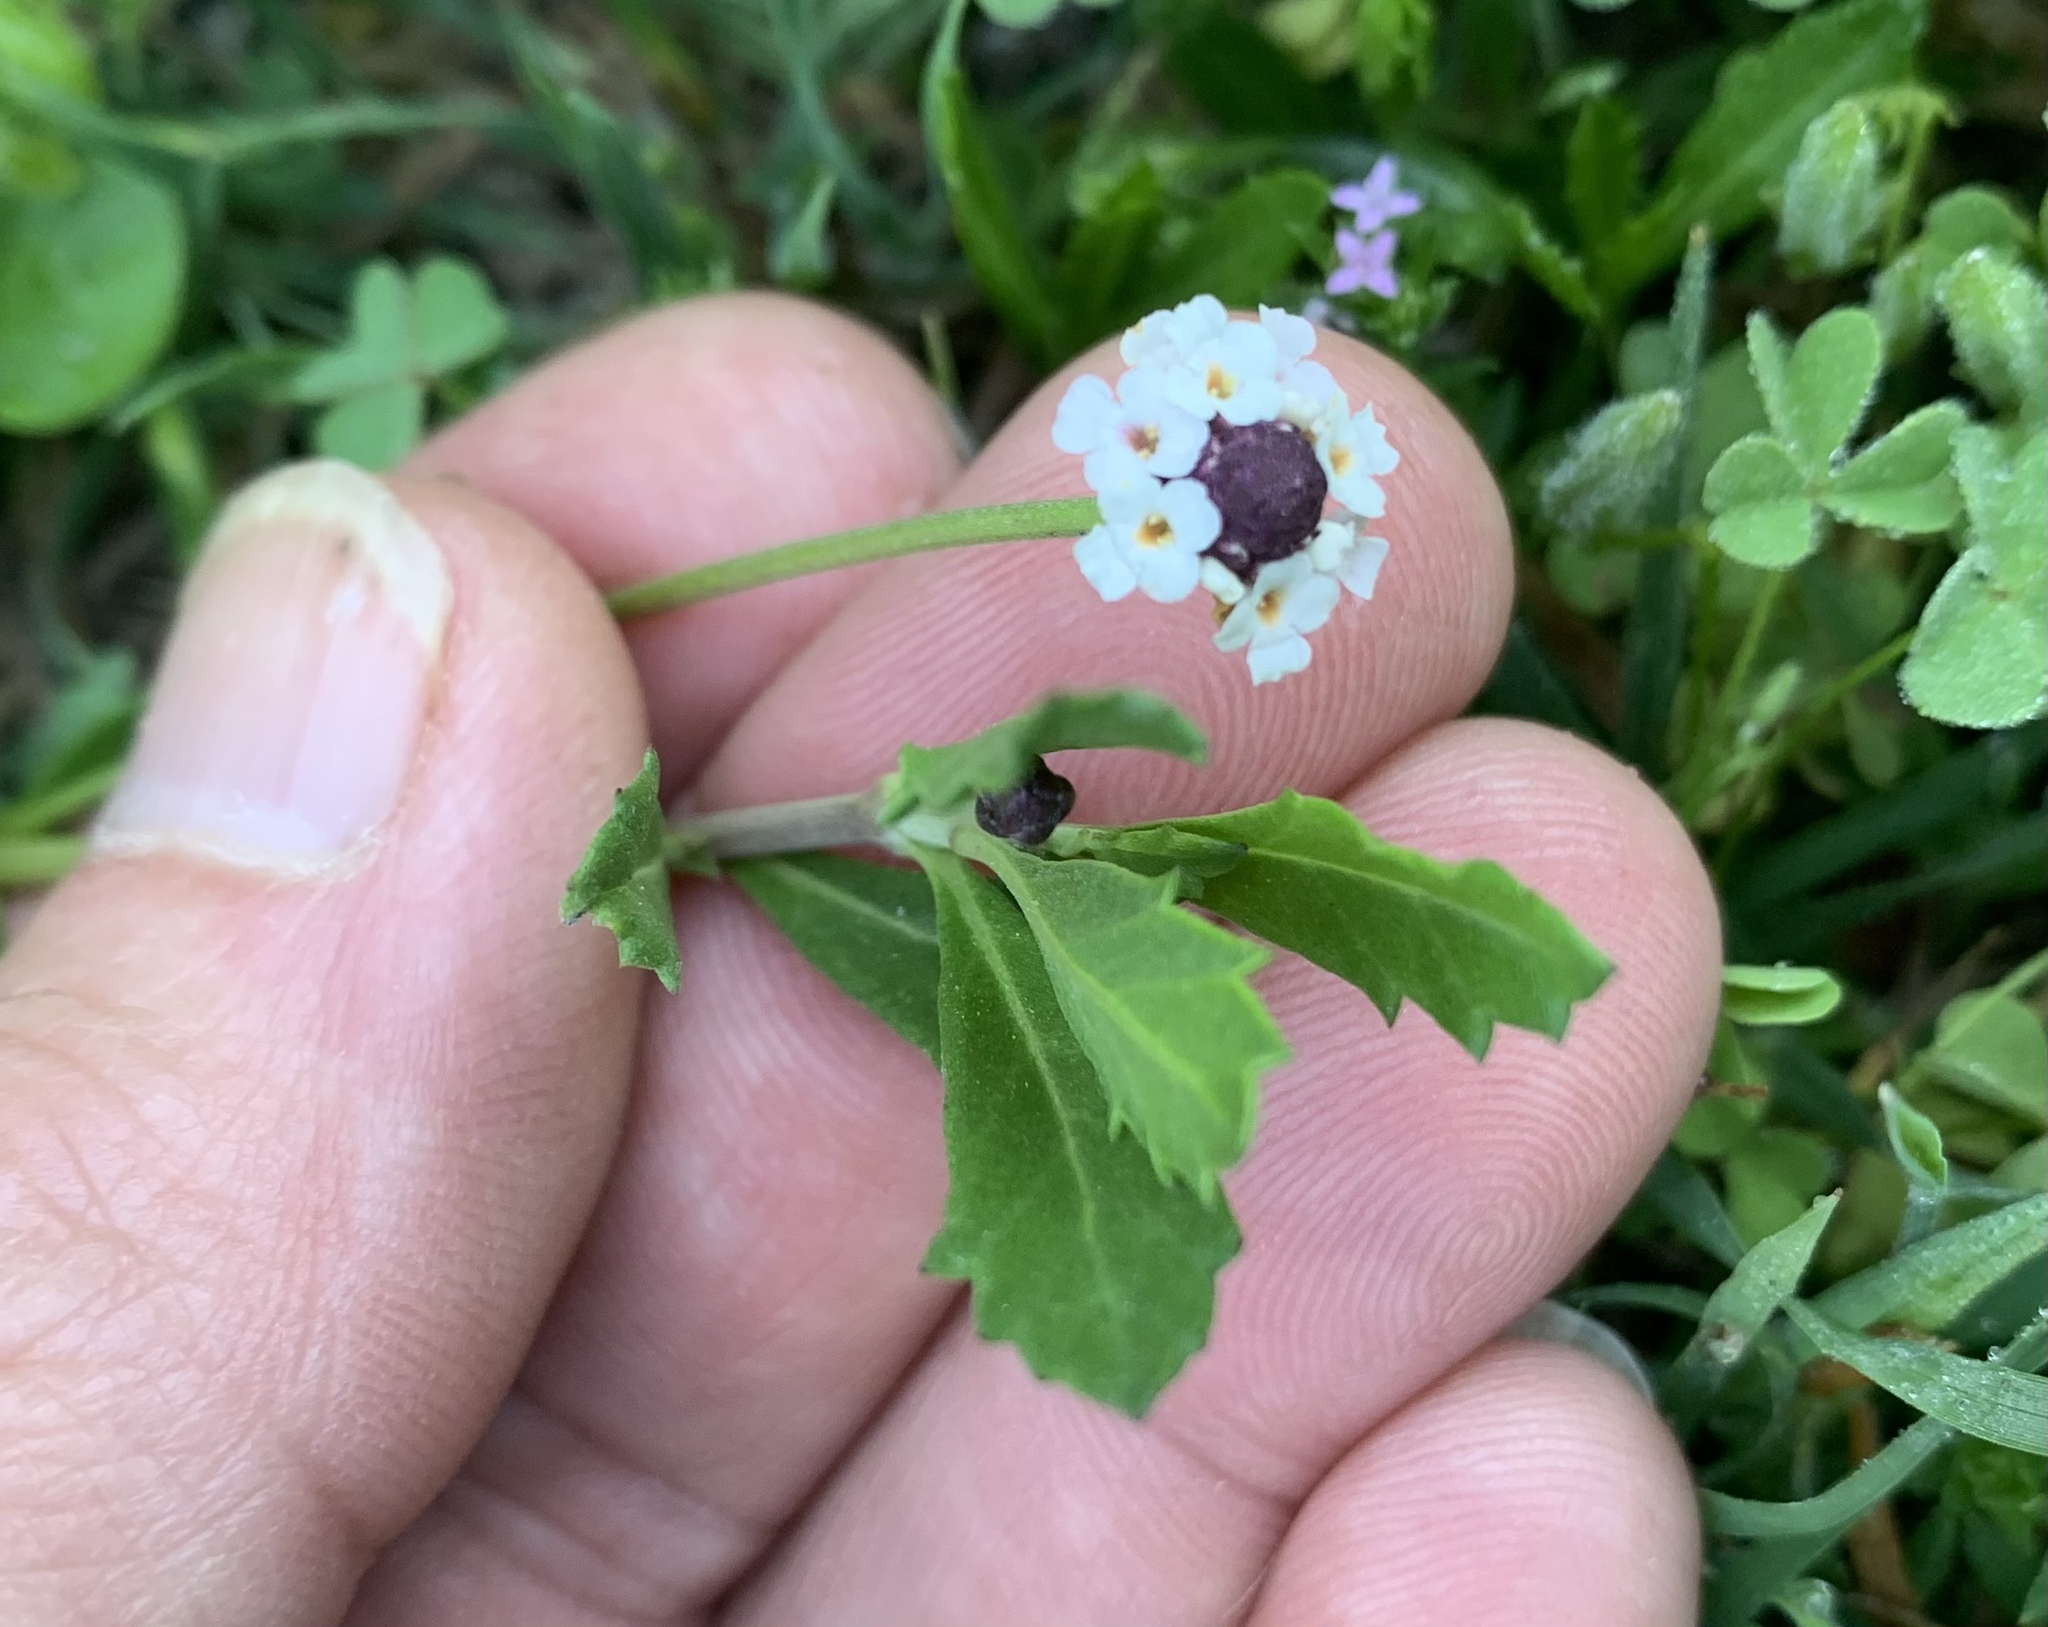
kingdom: Plantae
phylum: Tracheophyta
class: Magnoliopsida
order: Lamiales
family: Verbenaceae
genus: Phyla
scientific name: Phyla nodiflora
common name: Frogfruit
